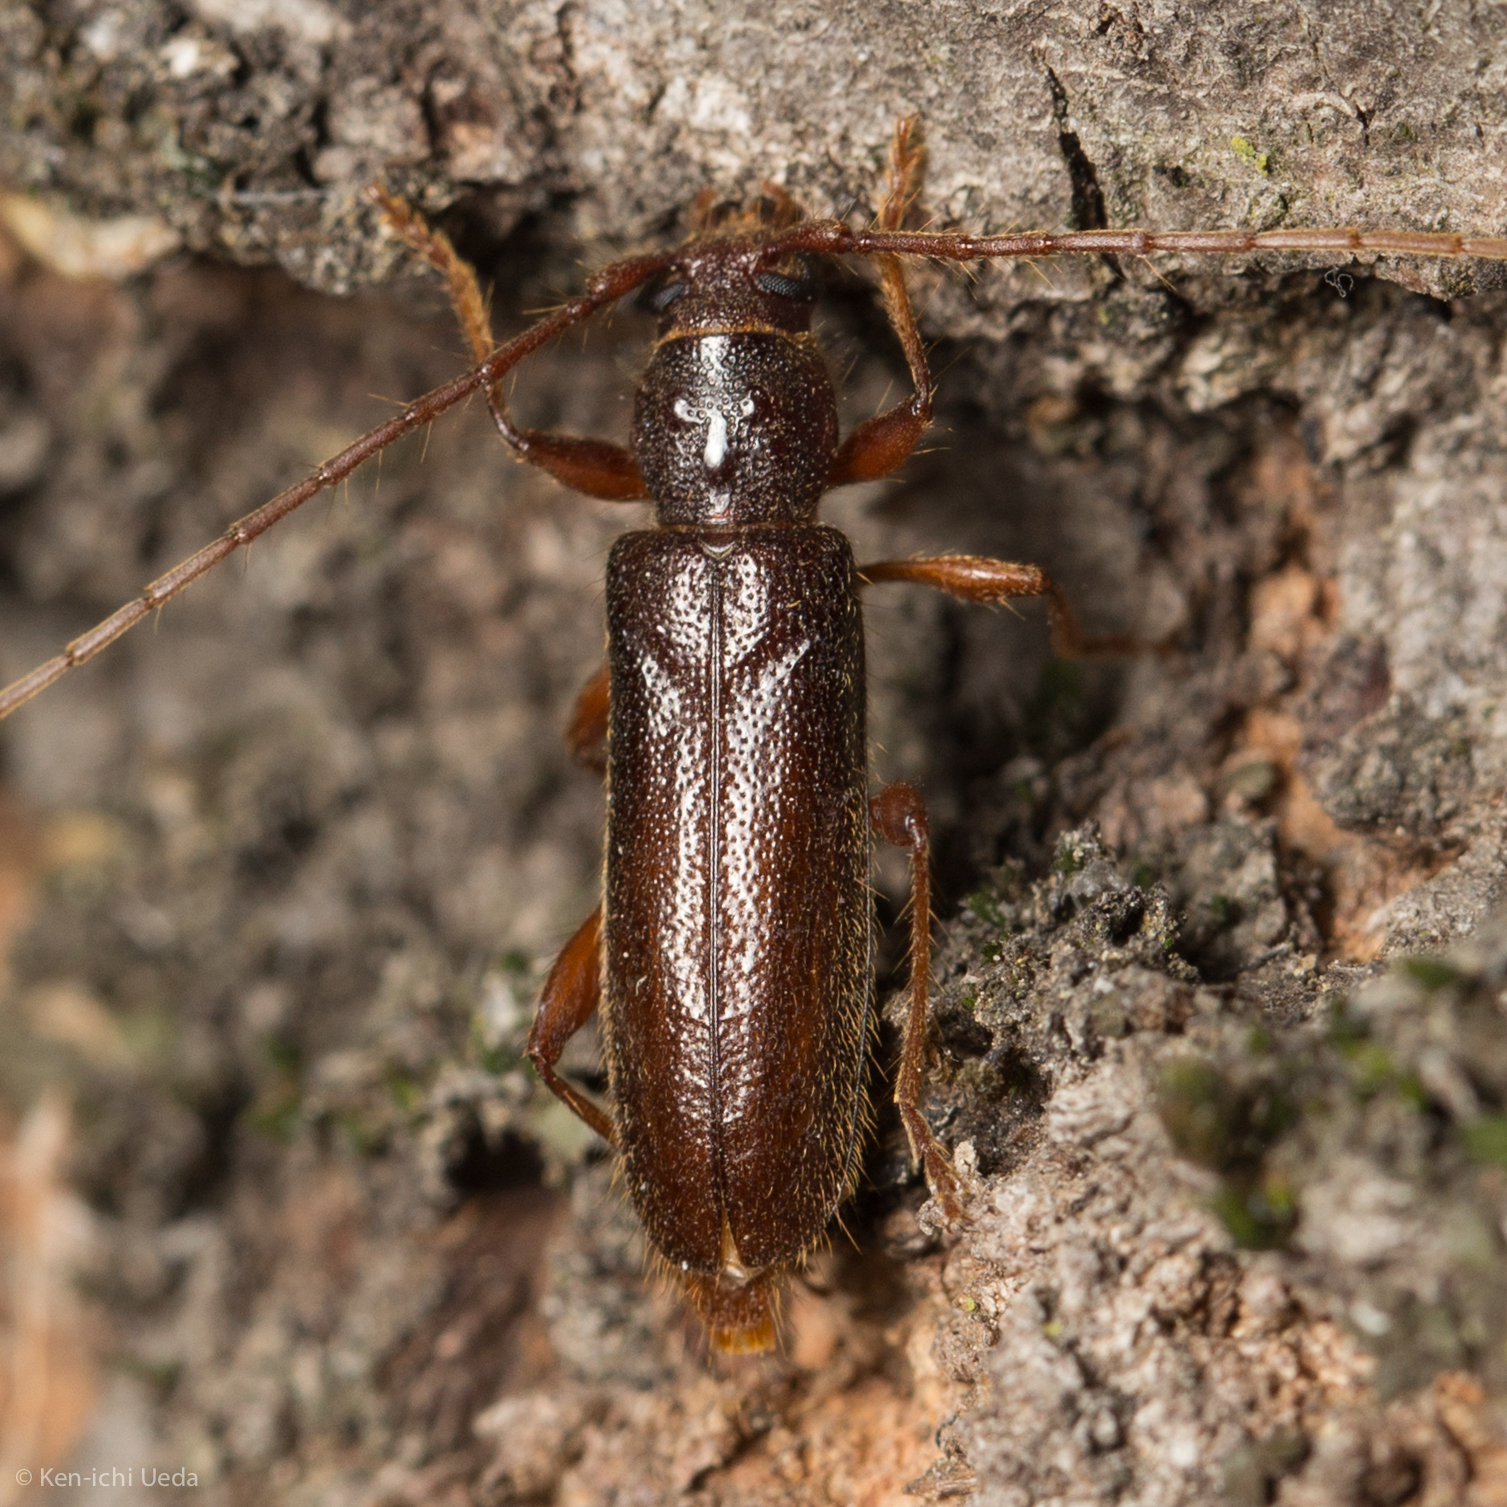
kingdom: Animalia
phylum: Arthropoda
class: Insecta
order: Coleoptera
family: Cerambycidae
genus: Meganoplium
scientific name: Meganoplium imbelle
